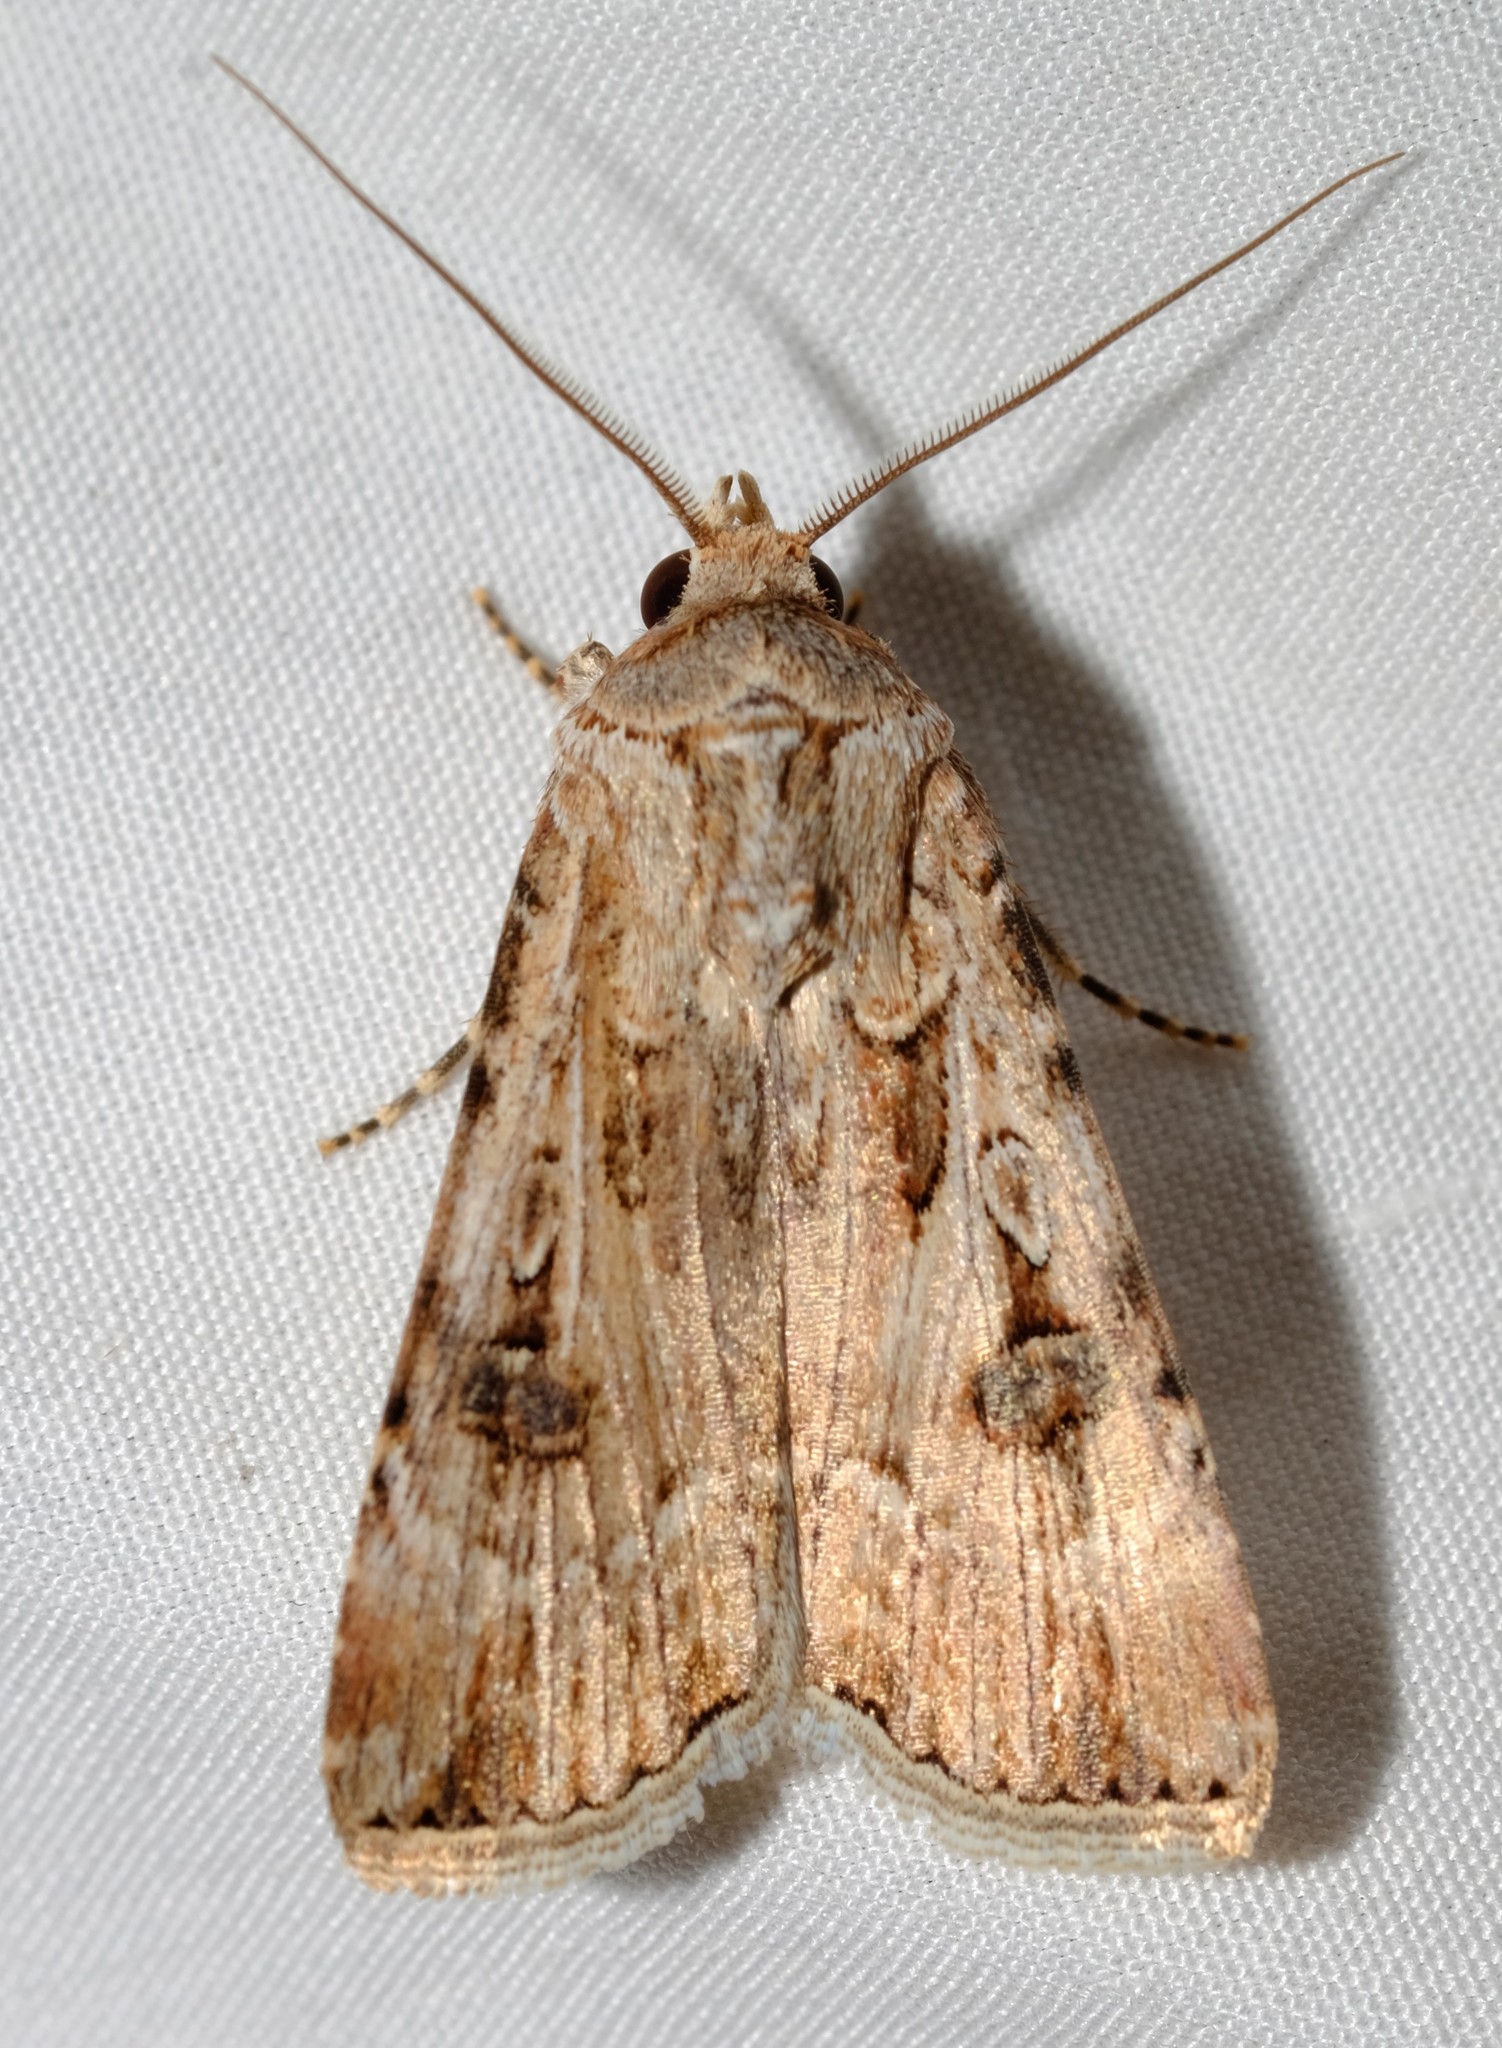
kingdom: Animalia
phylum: Arthropoda
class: Insecta
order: Lepidoptera
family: Noctuidae
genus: Agrotis
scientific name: Agrotis munda
